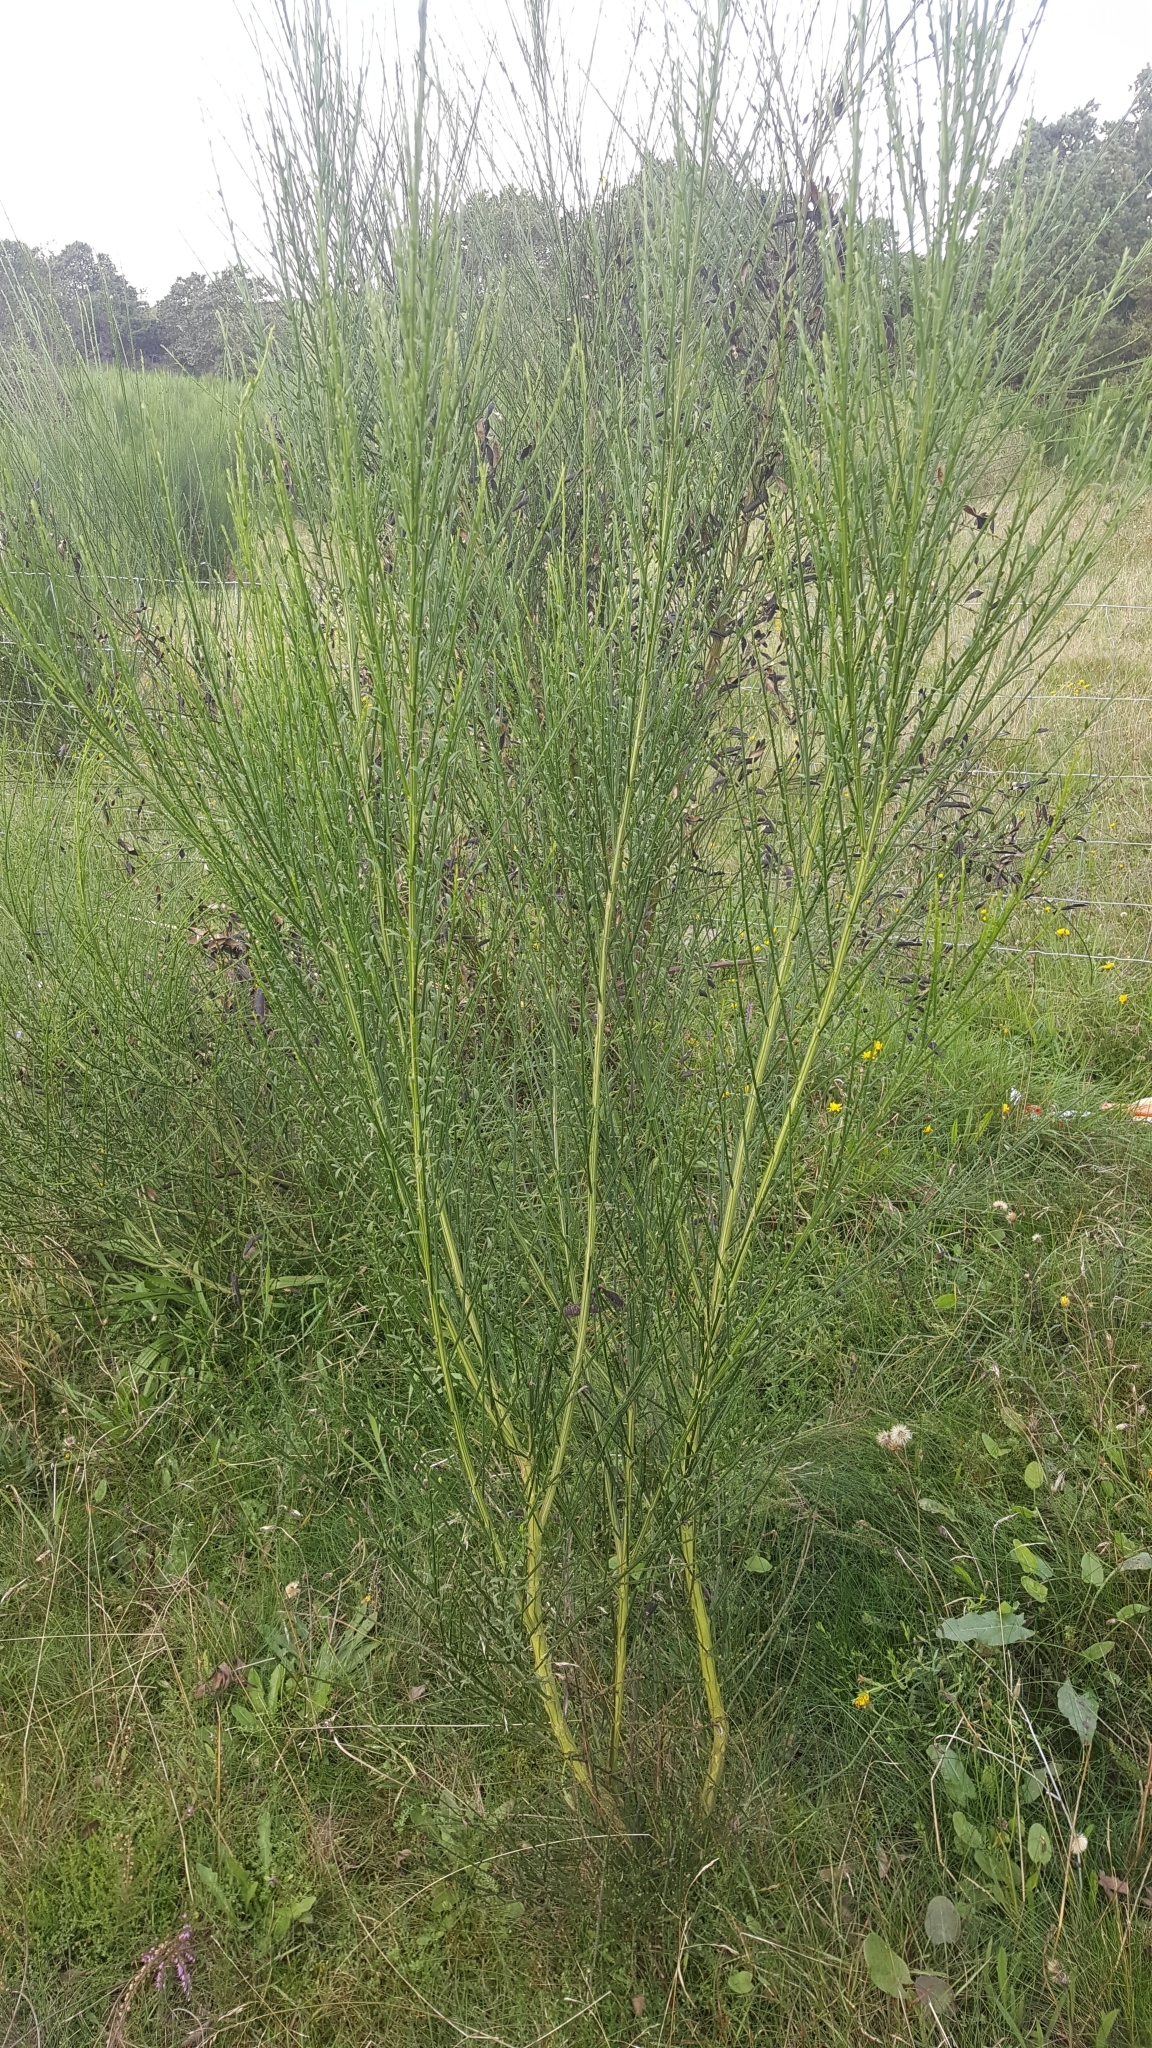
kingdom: Plantae
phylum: Tracheophyta
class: Magnoliopsida
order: Fabales
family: Fabaceae
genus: Cytisus
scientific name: Cytisus scoparius
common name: Scotch broom
